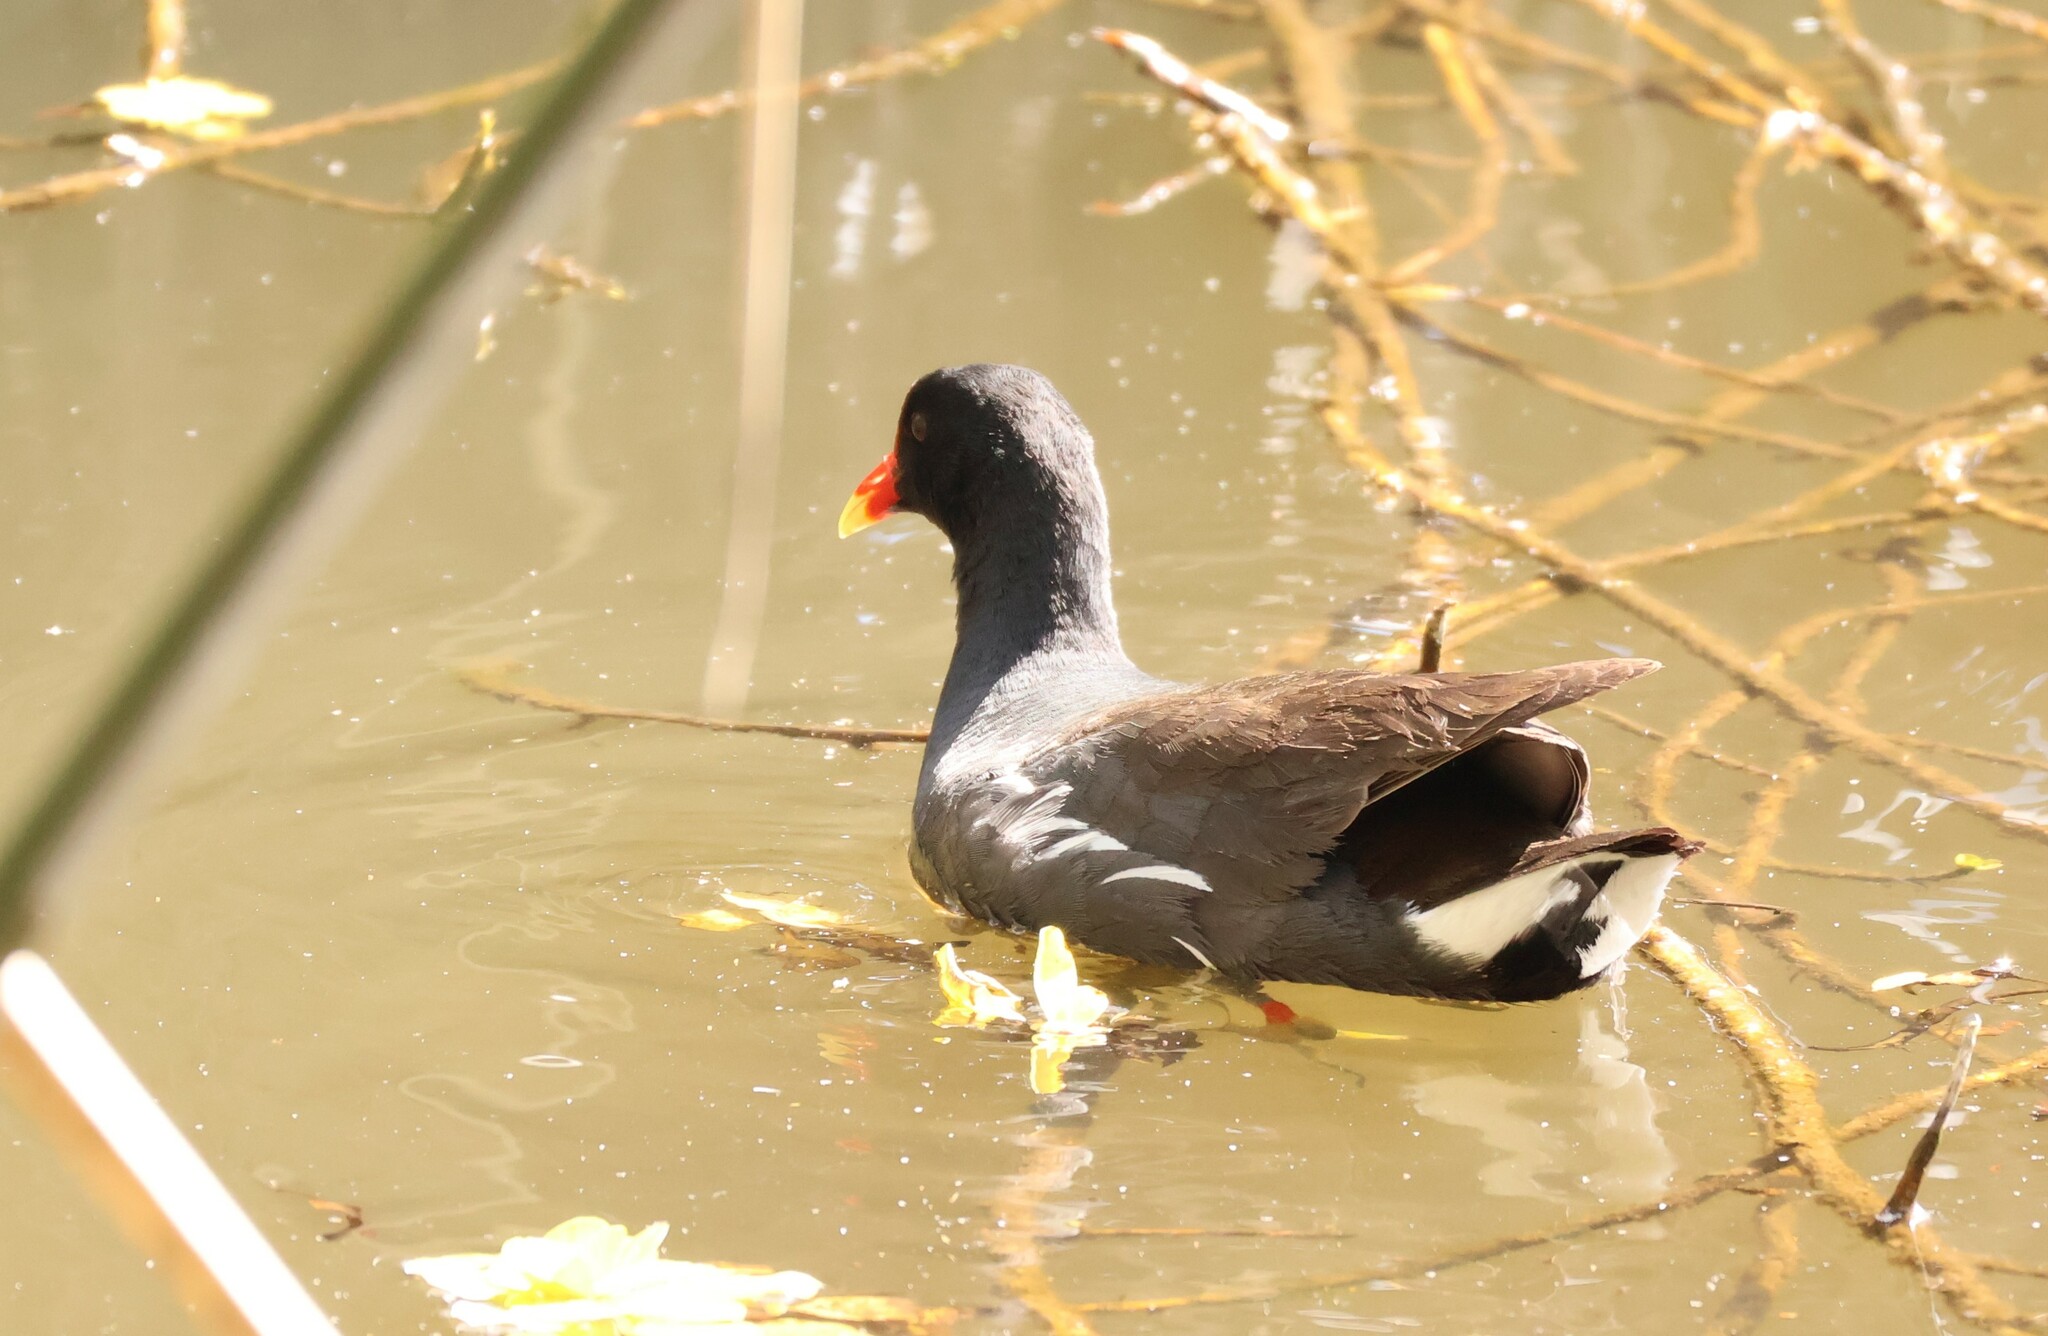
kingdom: Animalia
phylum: Chordata
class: Aves
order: Gruiformes
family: Rallidae
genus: Gallinula
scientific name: Gallinula chloropus
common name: Common moorhen
